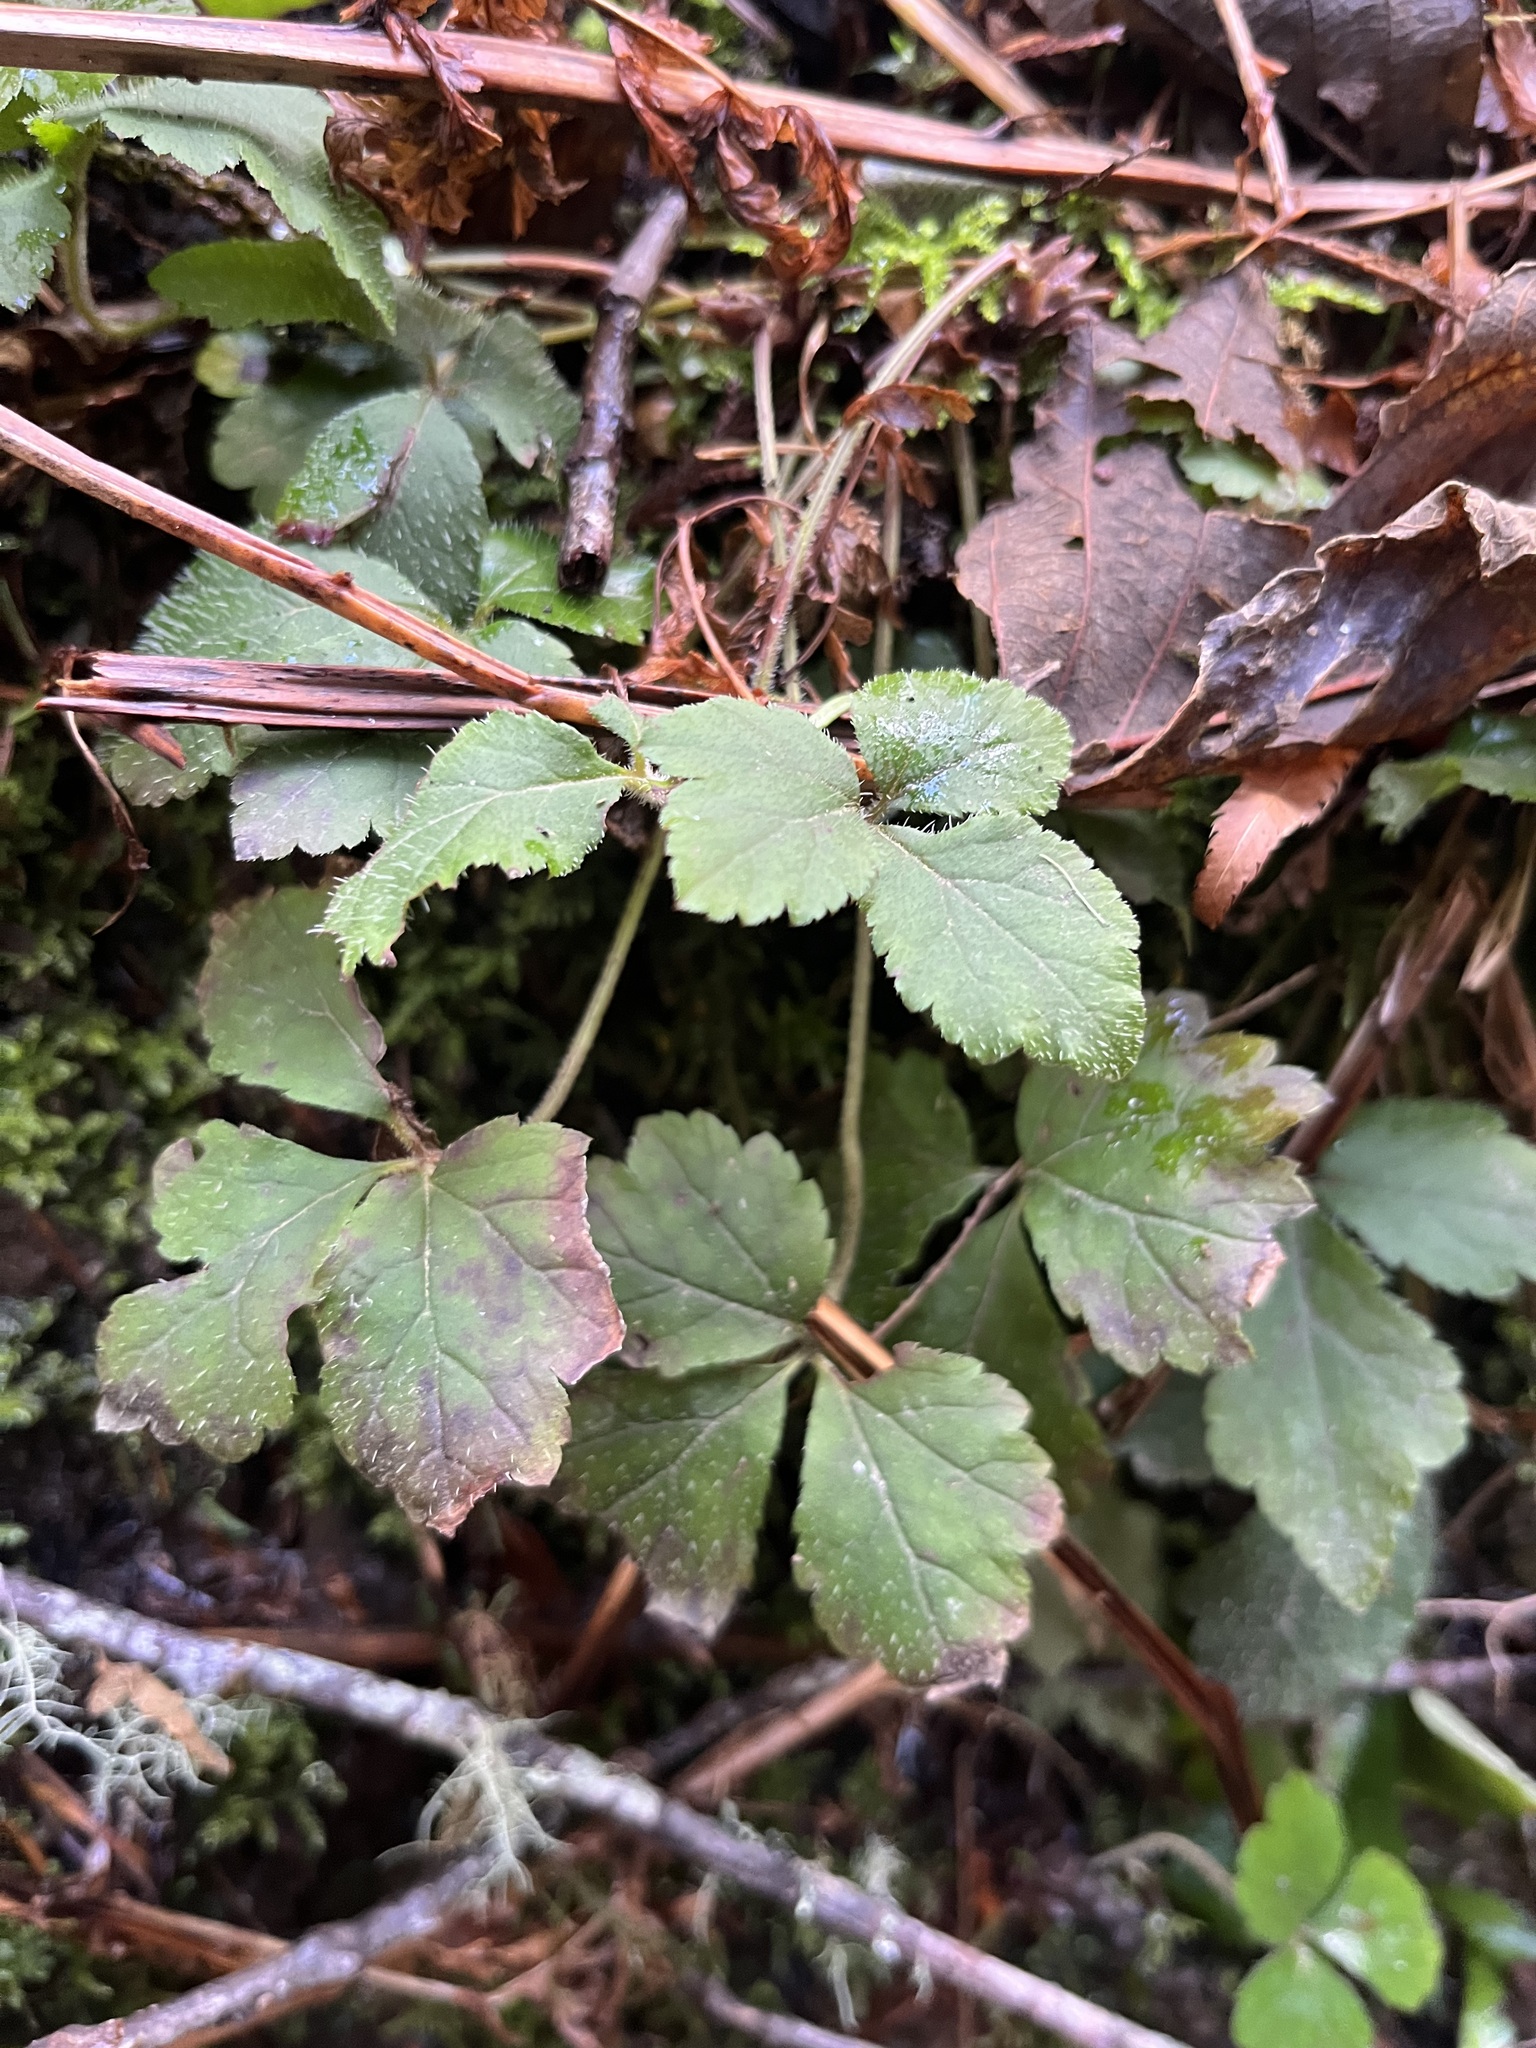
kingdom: Plantae
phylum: Tracheophyta
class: Magnoliopsida
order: Saxifragales
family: Saxifragaceae
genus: Tiarella
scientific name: Tiarella trifoliata
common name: Sugar-scoop
